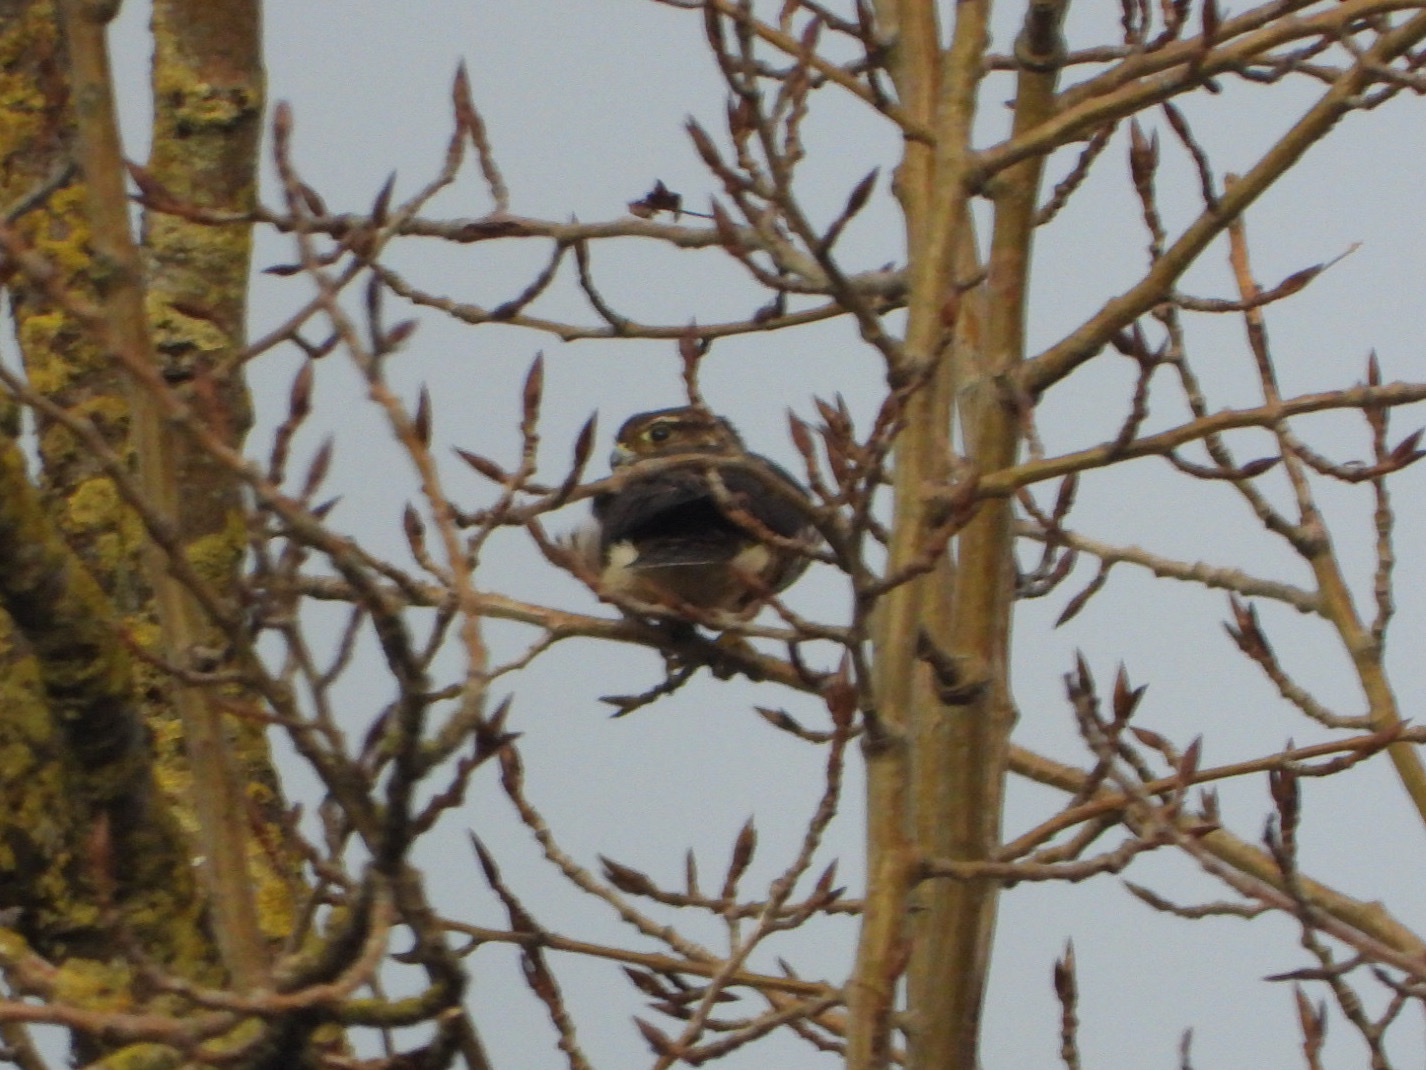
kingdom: Animalia
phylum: Chordata
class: Aves
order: Falconiformes
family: Falconidae
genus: Falco
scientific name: Falco columbarius
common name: Merlin
